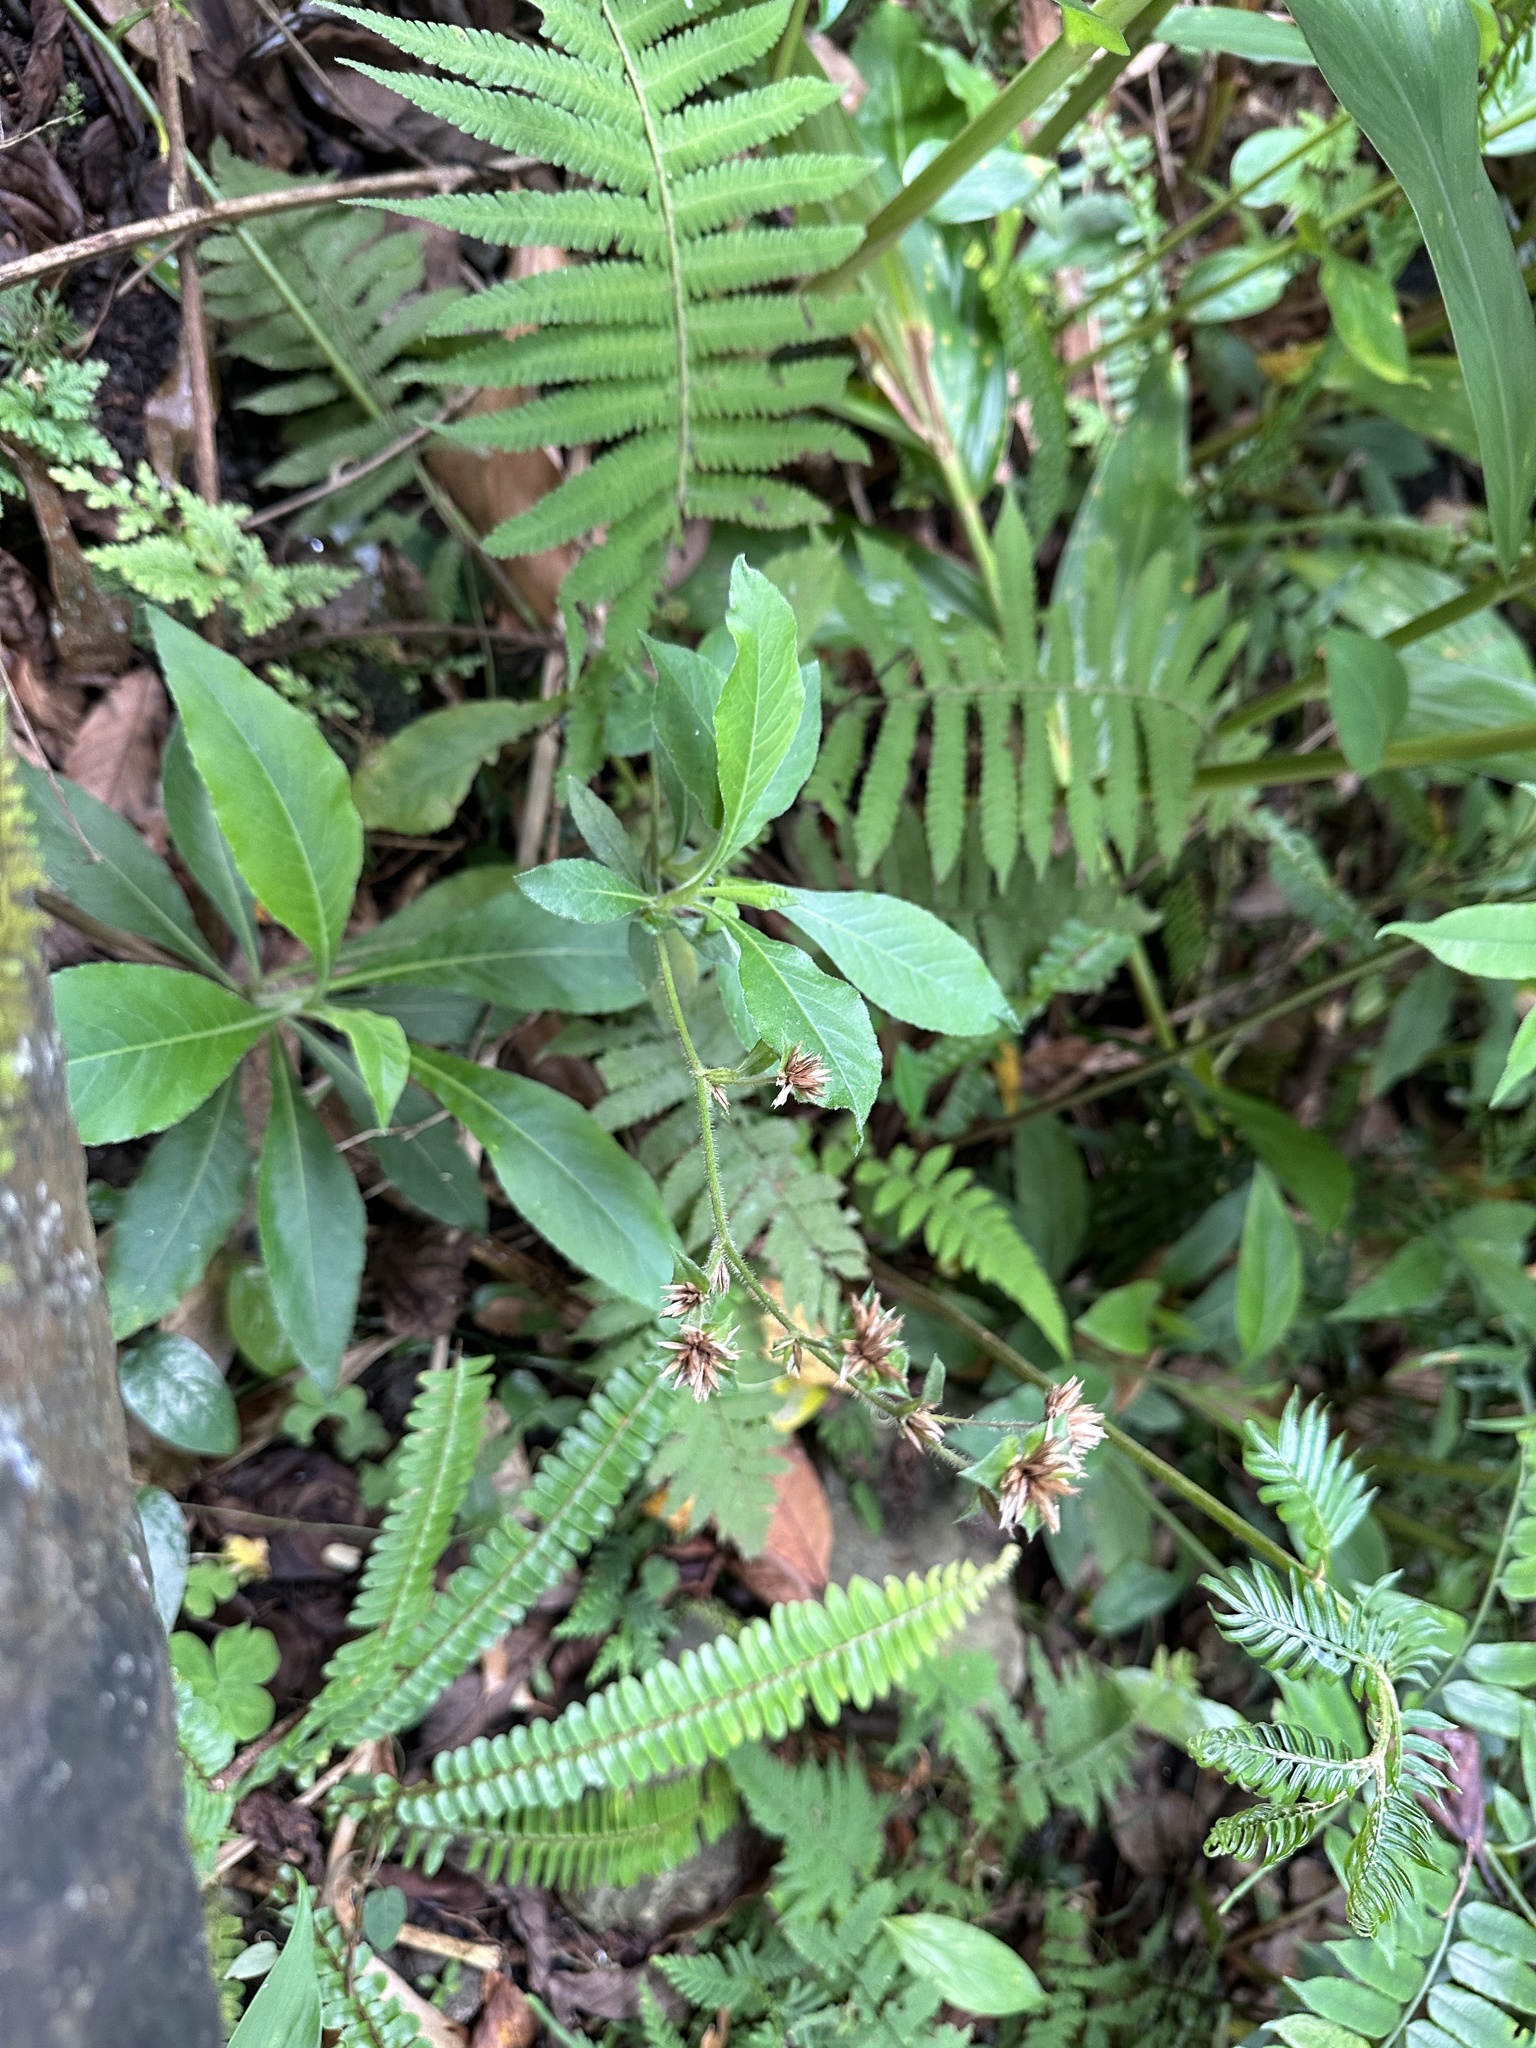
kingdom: Plantae
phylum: Tracheophyta
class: Magnoliopsida
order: Asterales
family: Asteraceae
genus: Elephantopus
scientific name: Elephantopus mollis
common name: Soft elephantsfoot
